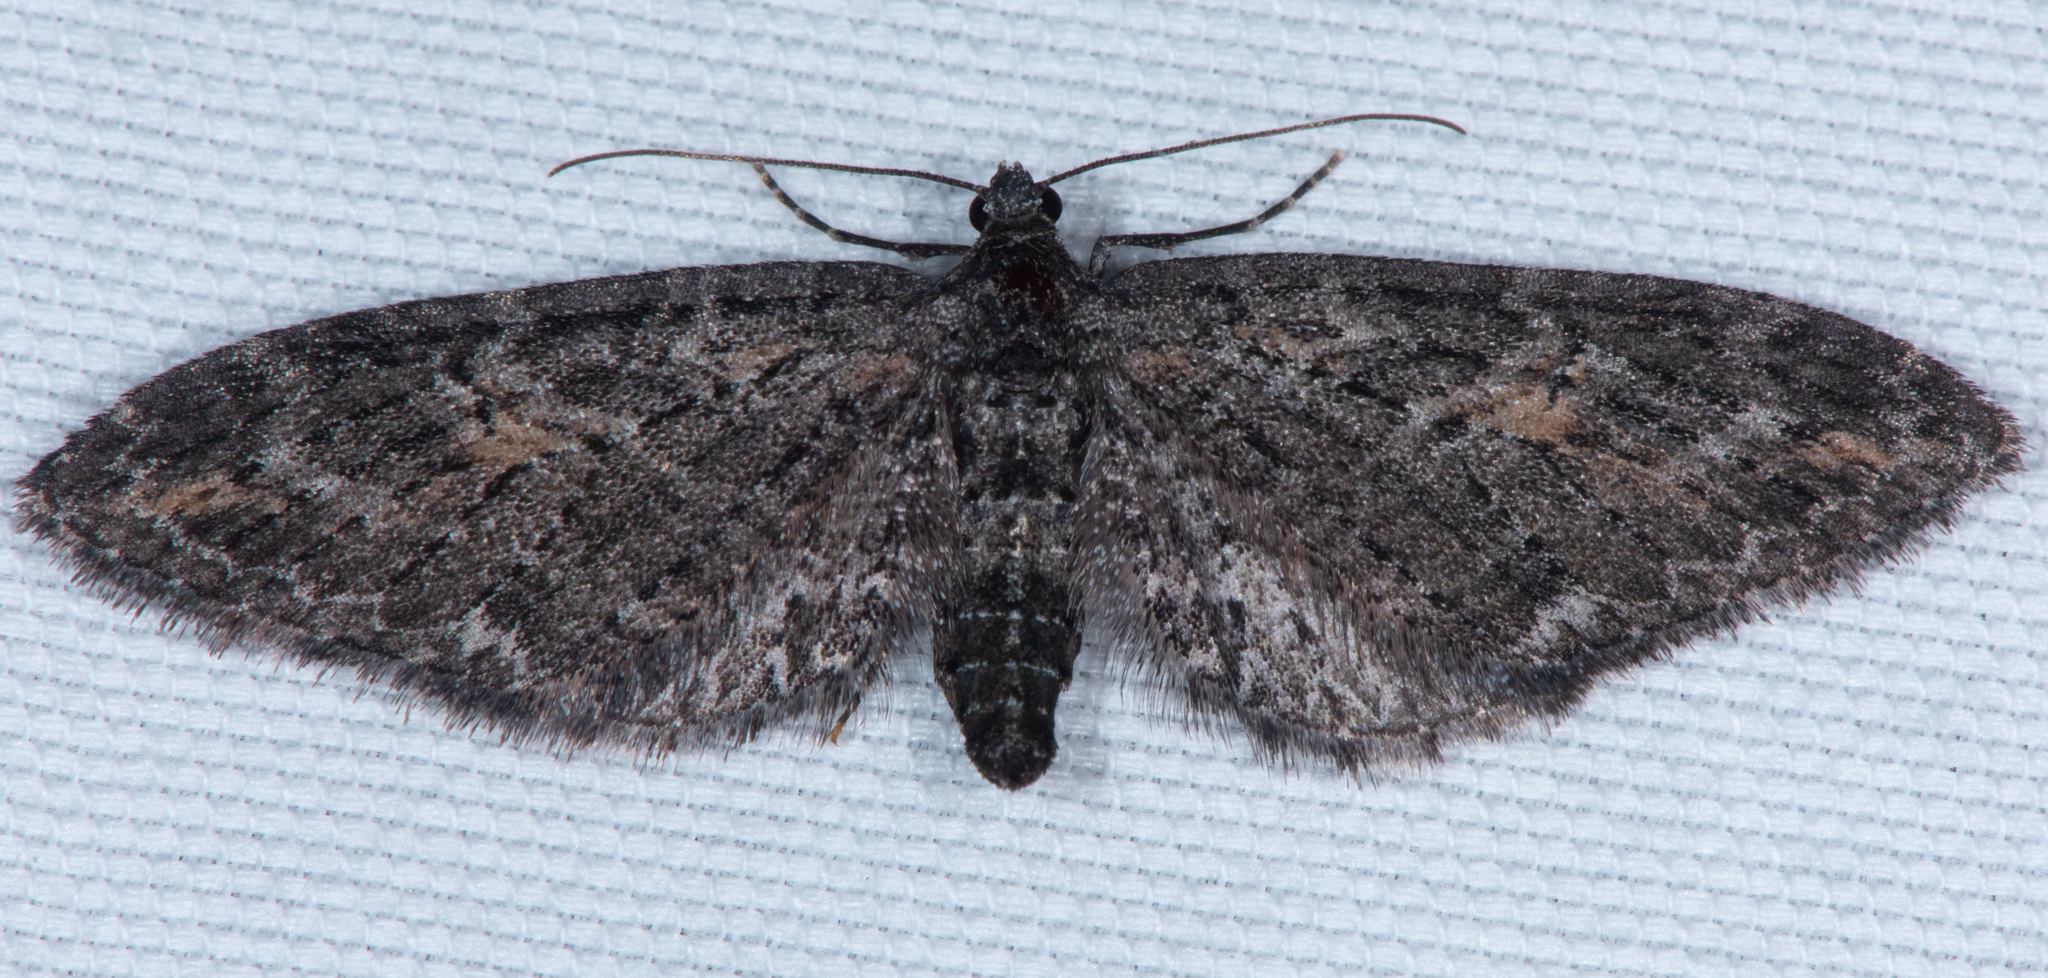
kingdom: Animalia
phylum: Arthropoda
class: Insecta
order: Lepidoptera
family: Geometridae
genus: Eupithecia
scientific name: Eupithecia gilvipennata
